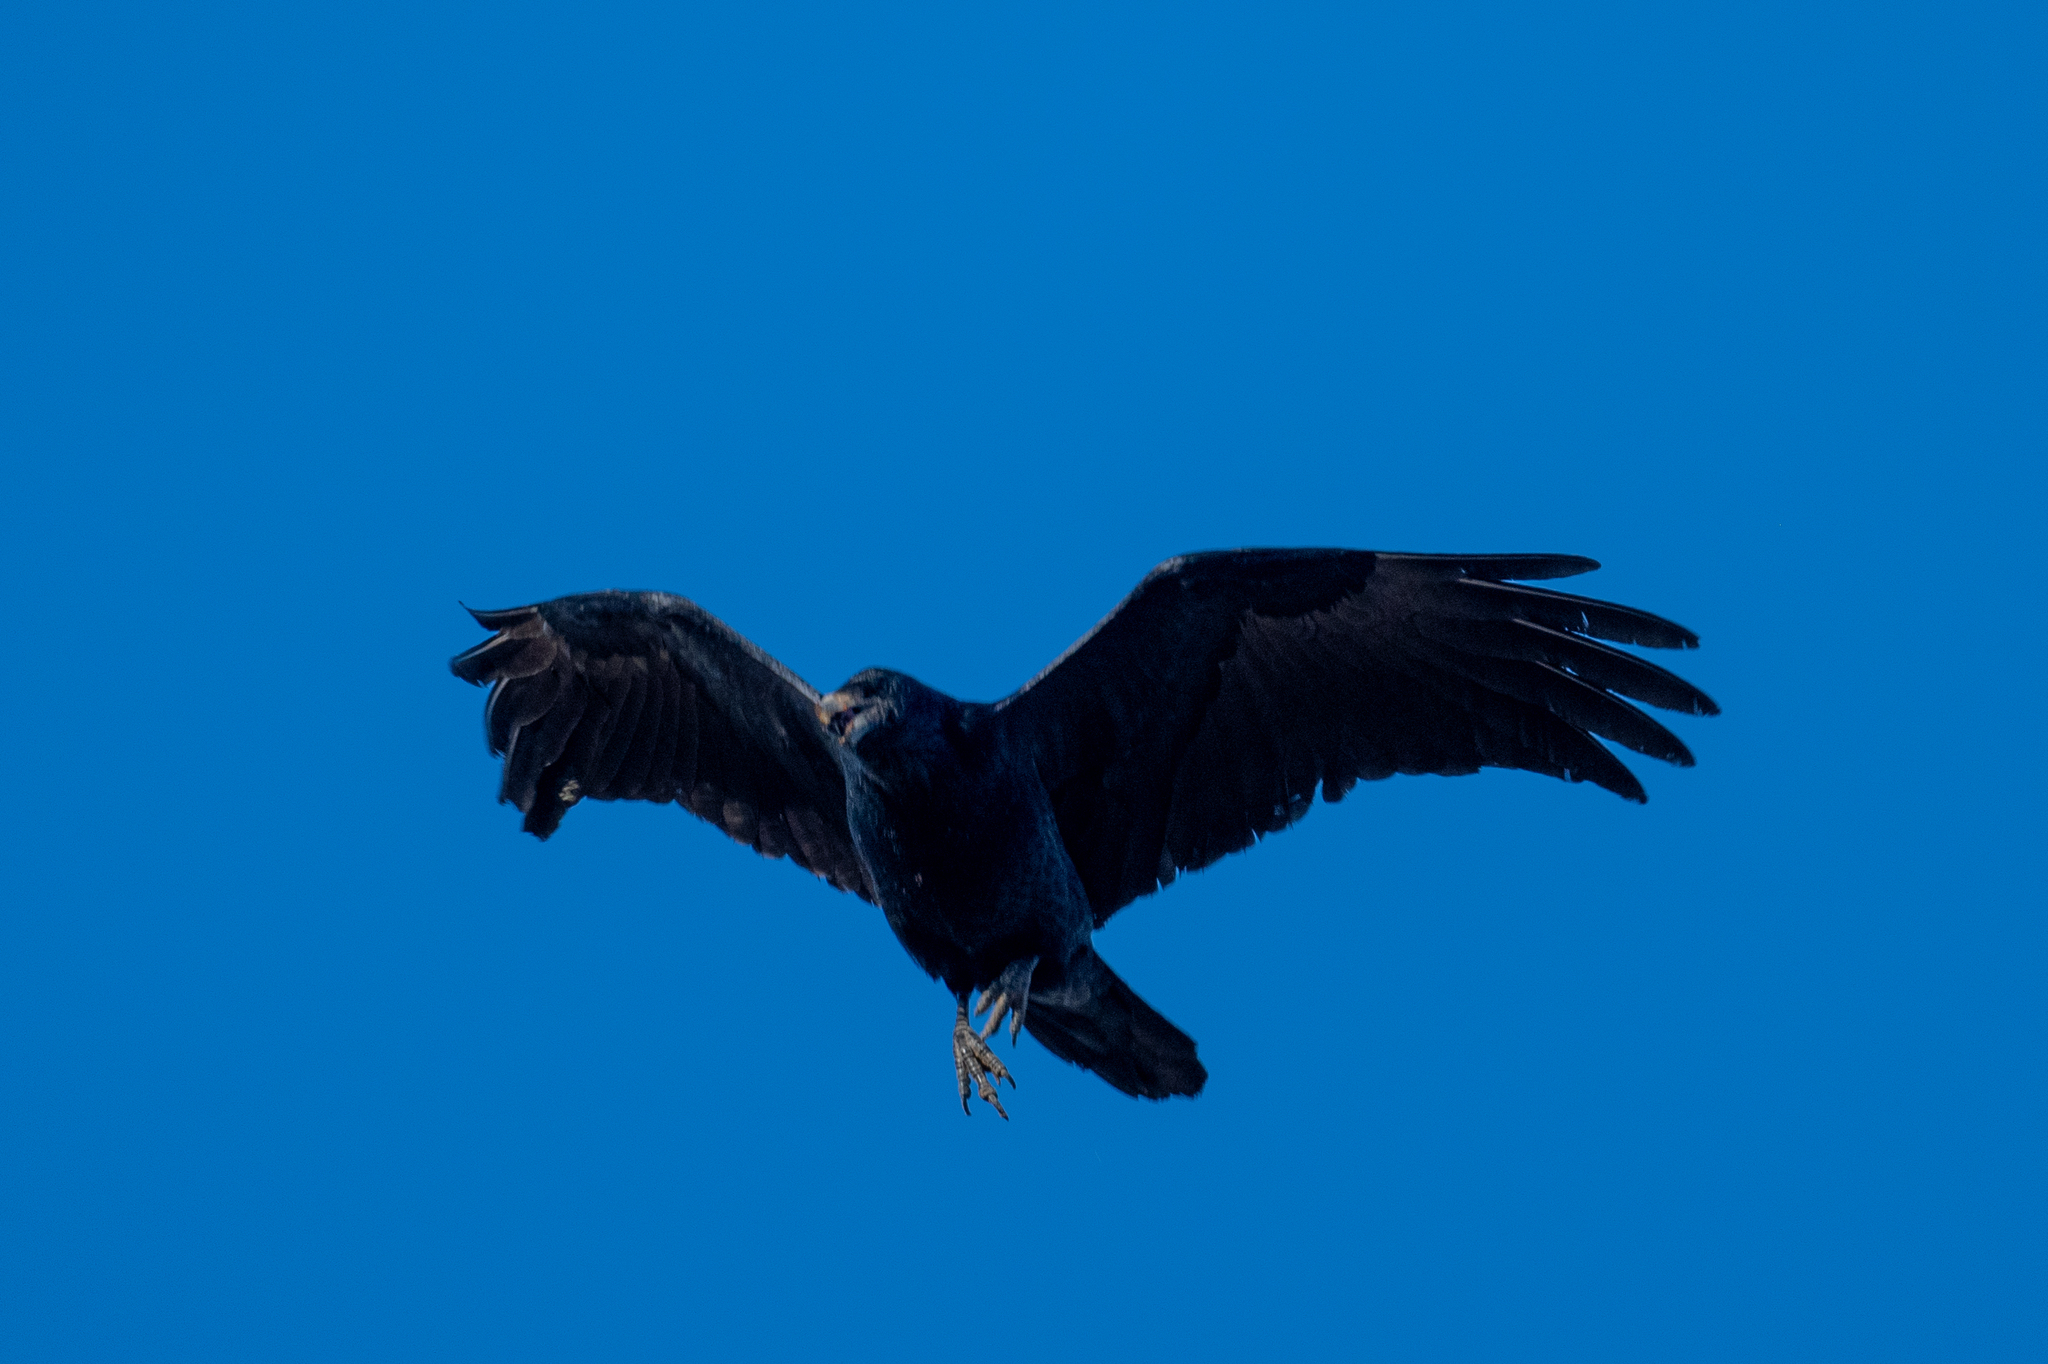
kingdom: Animalia
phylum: Chordata
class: Aves
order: Passeriformes
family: Corvidae
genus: Corvus
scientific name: Corvus corax
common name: Common raven
